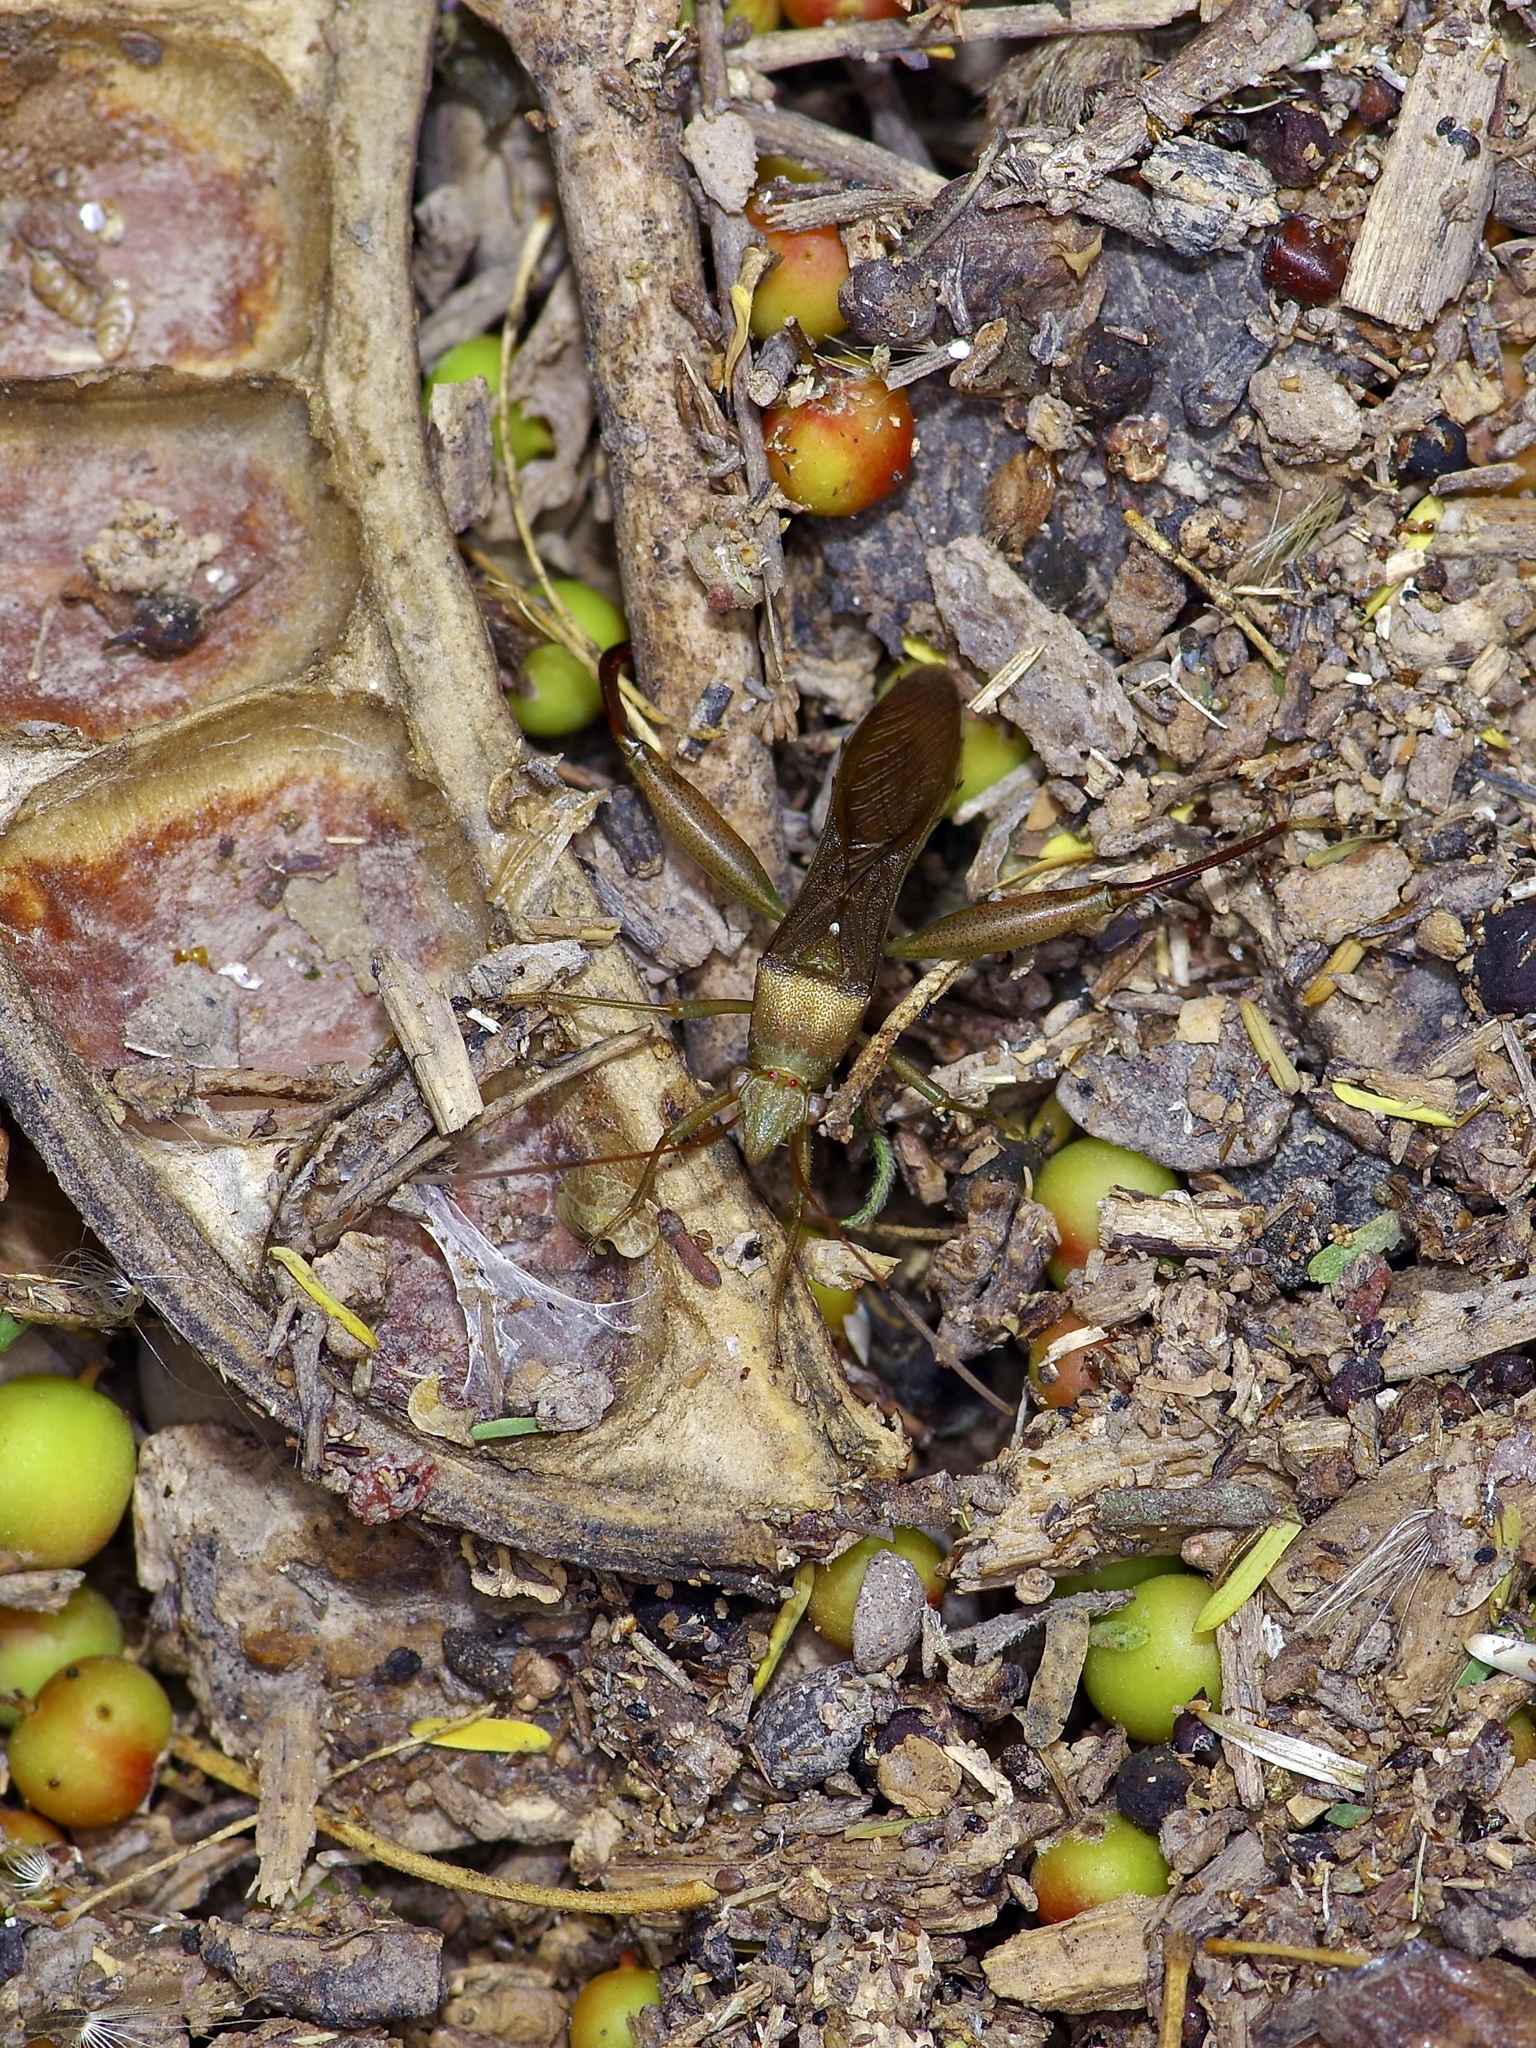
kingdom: Animalia
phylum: Arthropoda
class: Insecta
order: Hemiptera
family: Alydidae
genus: Hyalymenus
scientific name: Hyalymenus tarsatus
